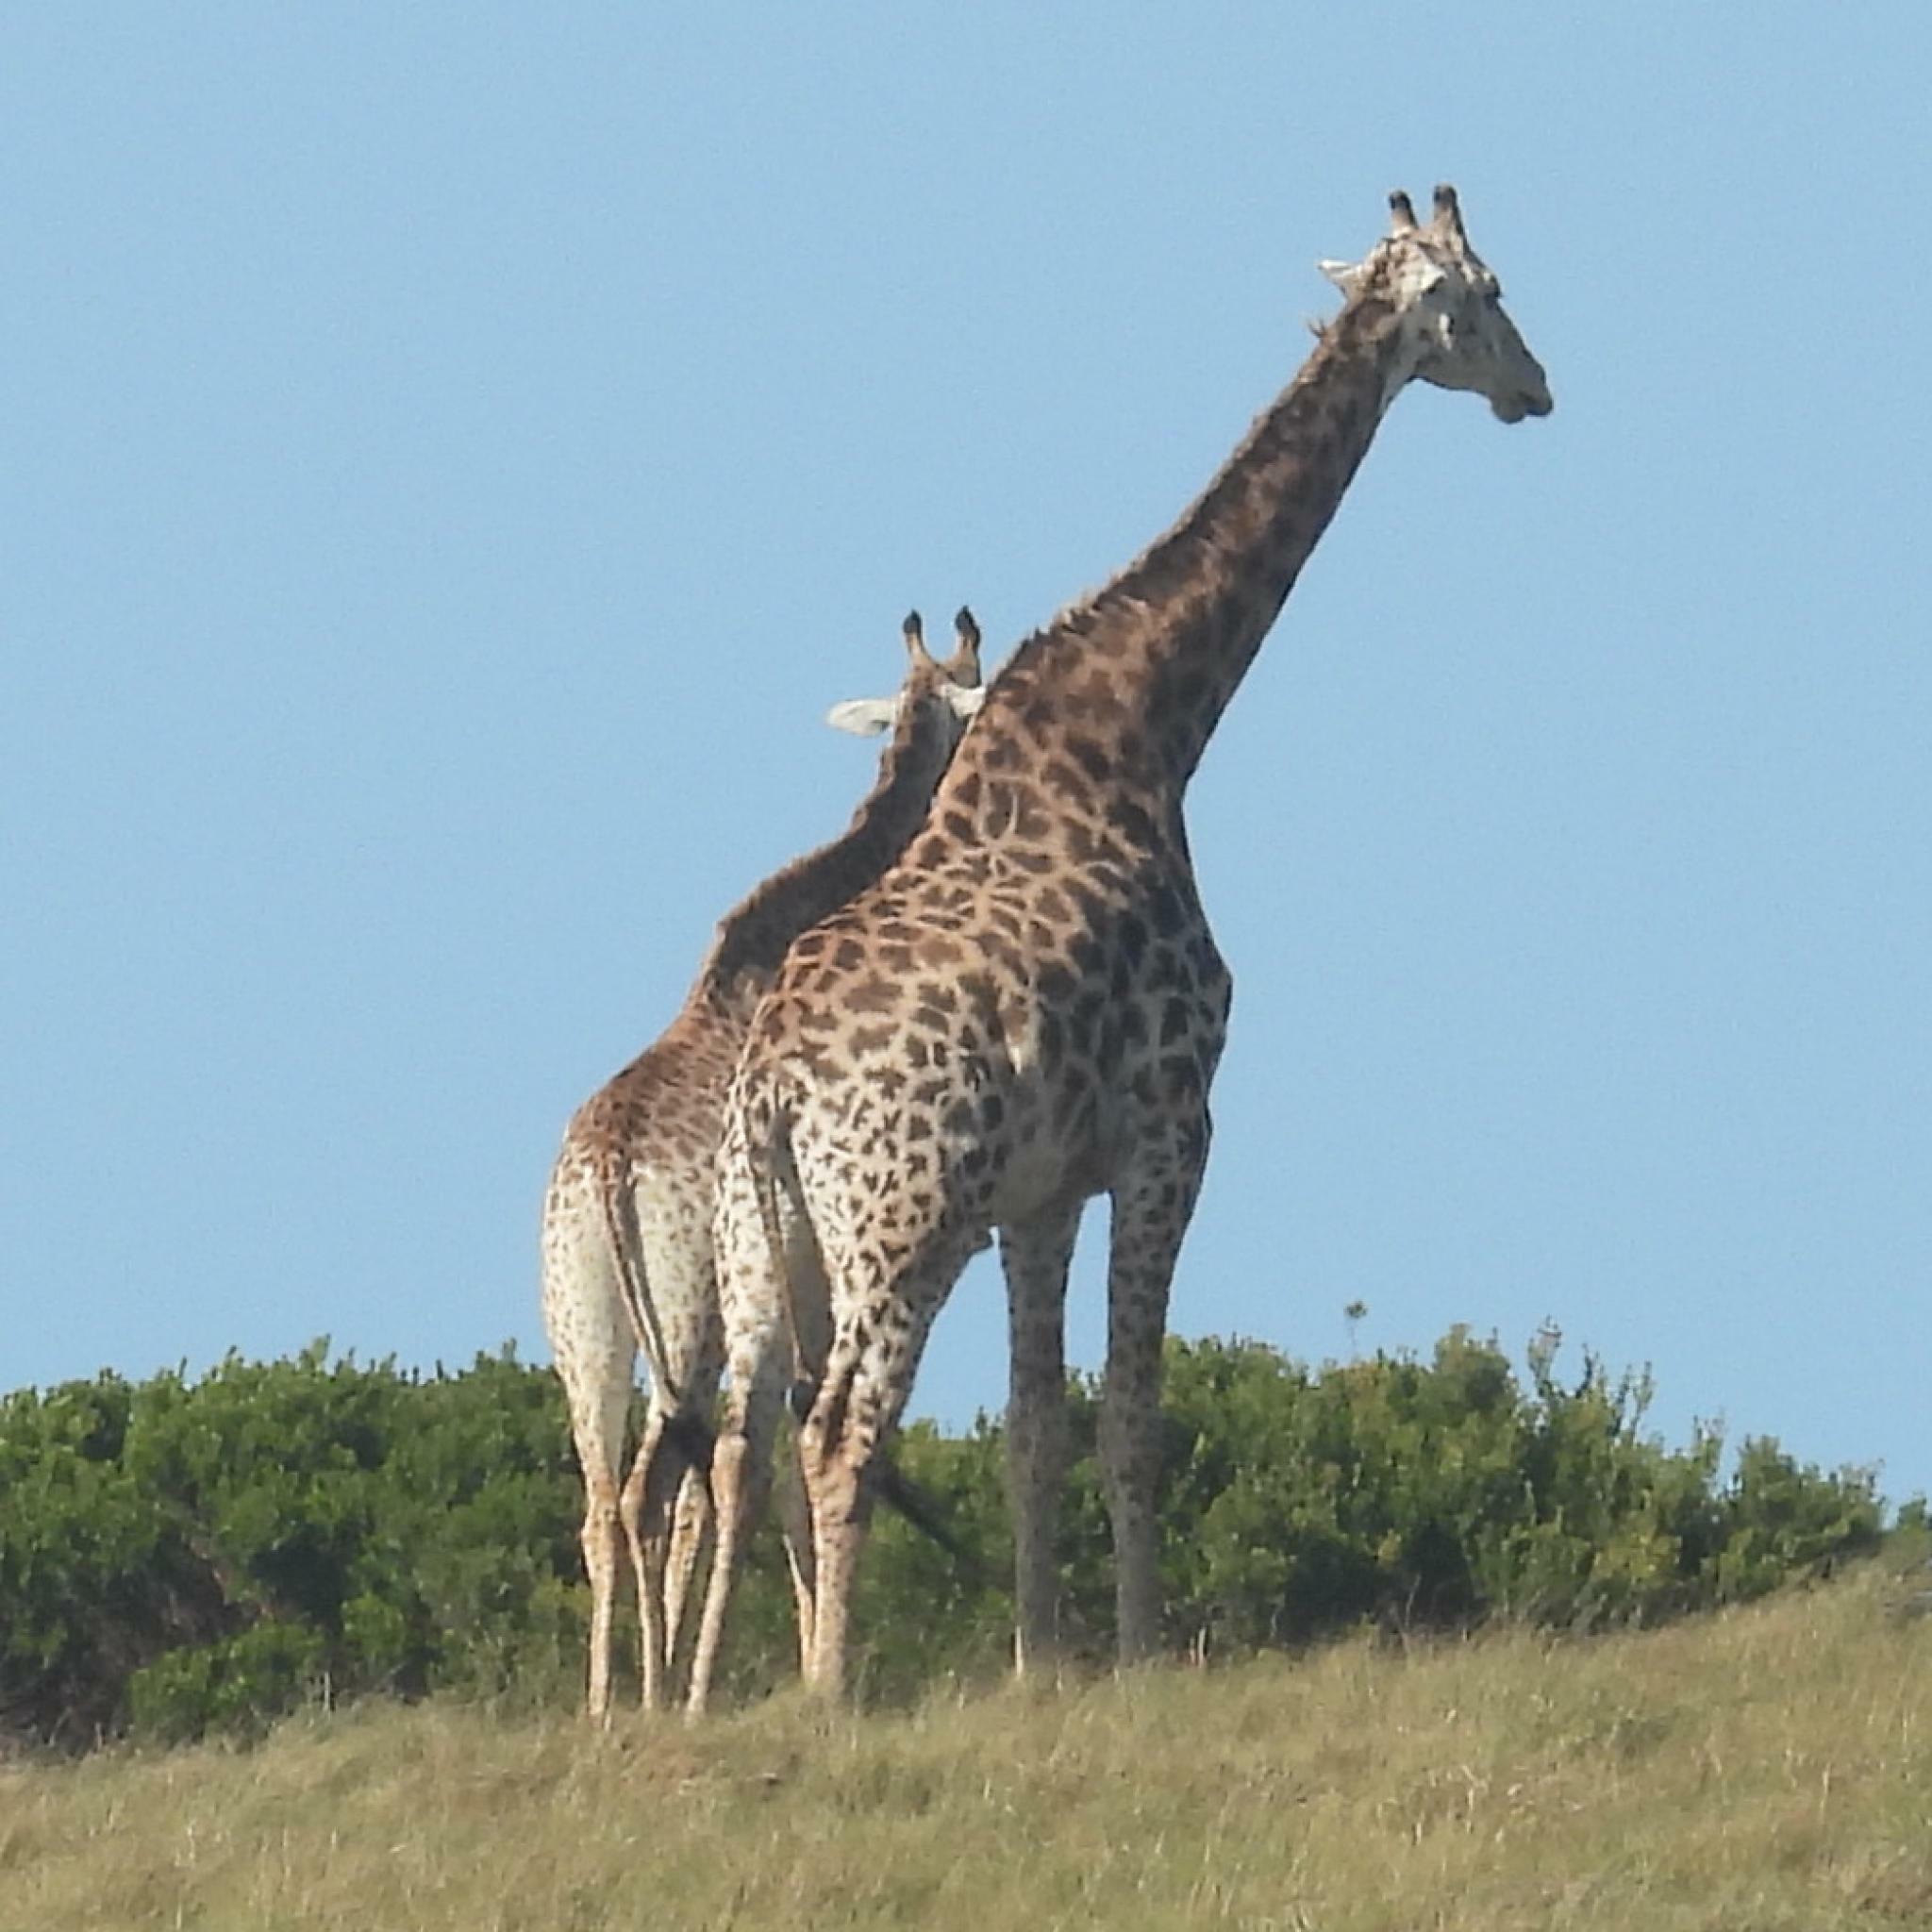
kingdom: Animalia
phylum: Chordata
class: Mammalia
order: Artiodactyla
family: Giraffidae
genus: Giraffa
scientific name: Giraffa giraffa
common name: Southern giraffe
